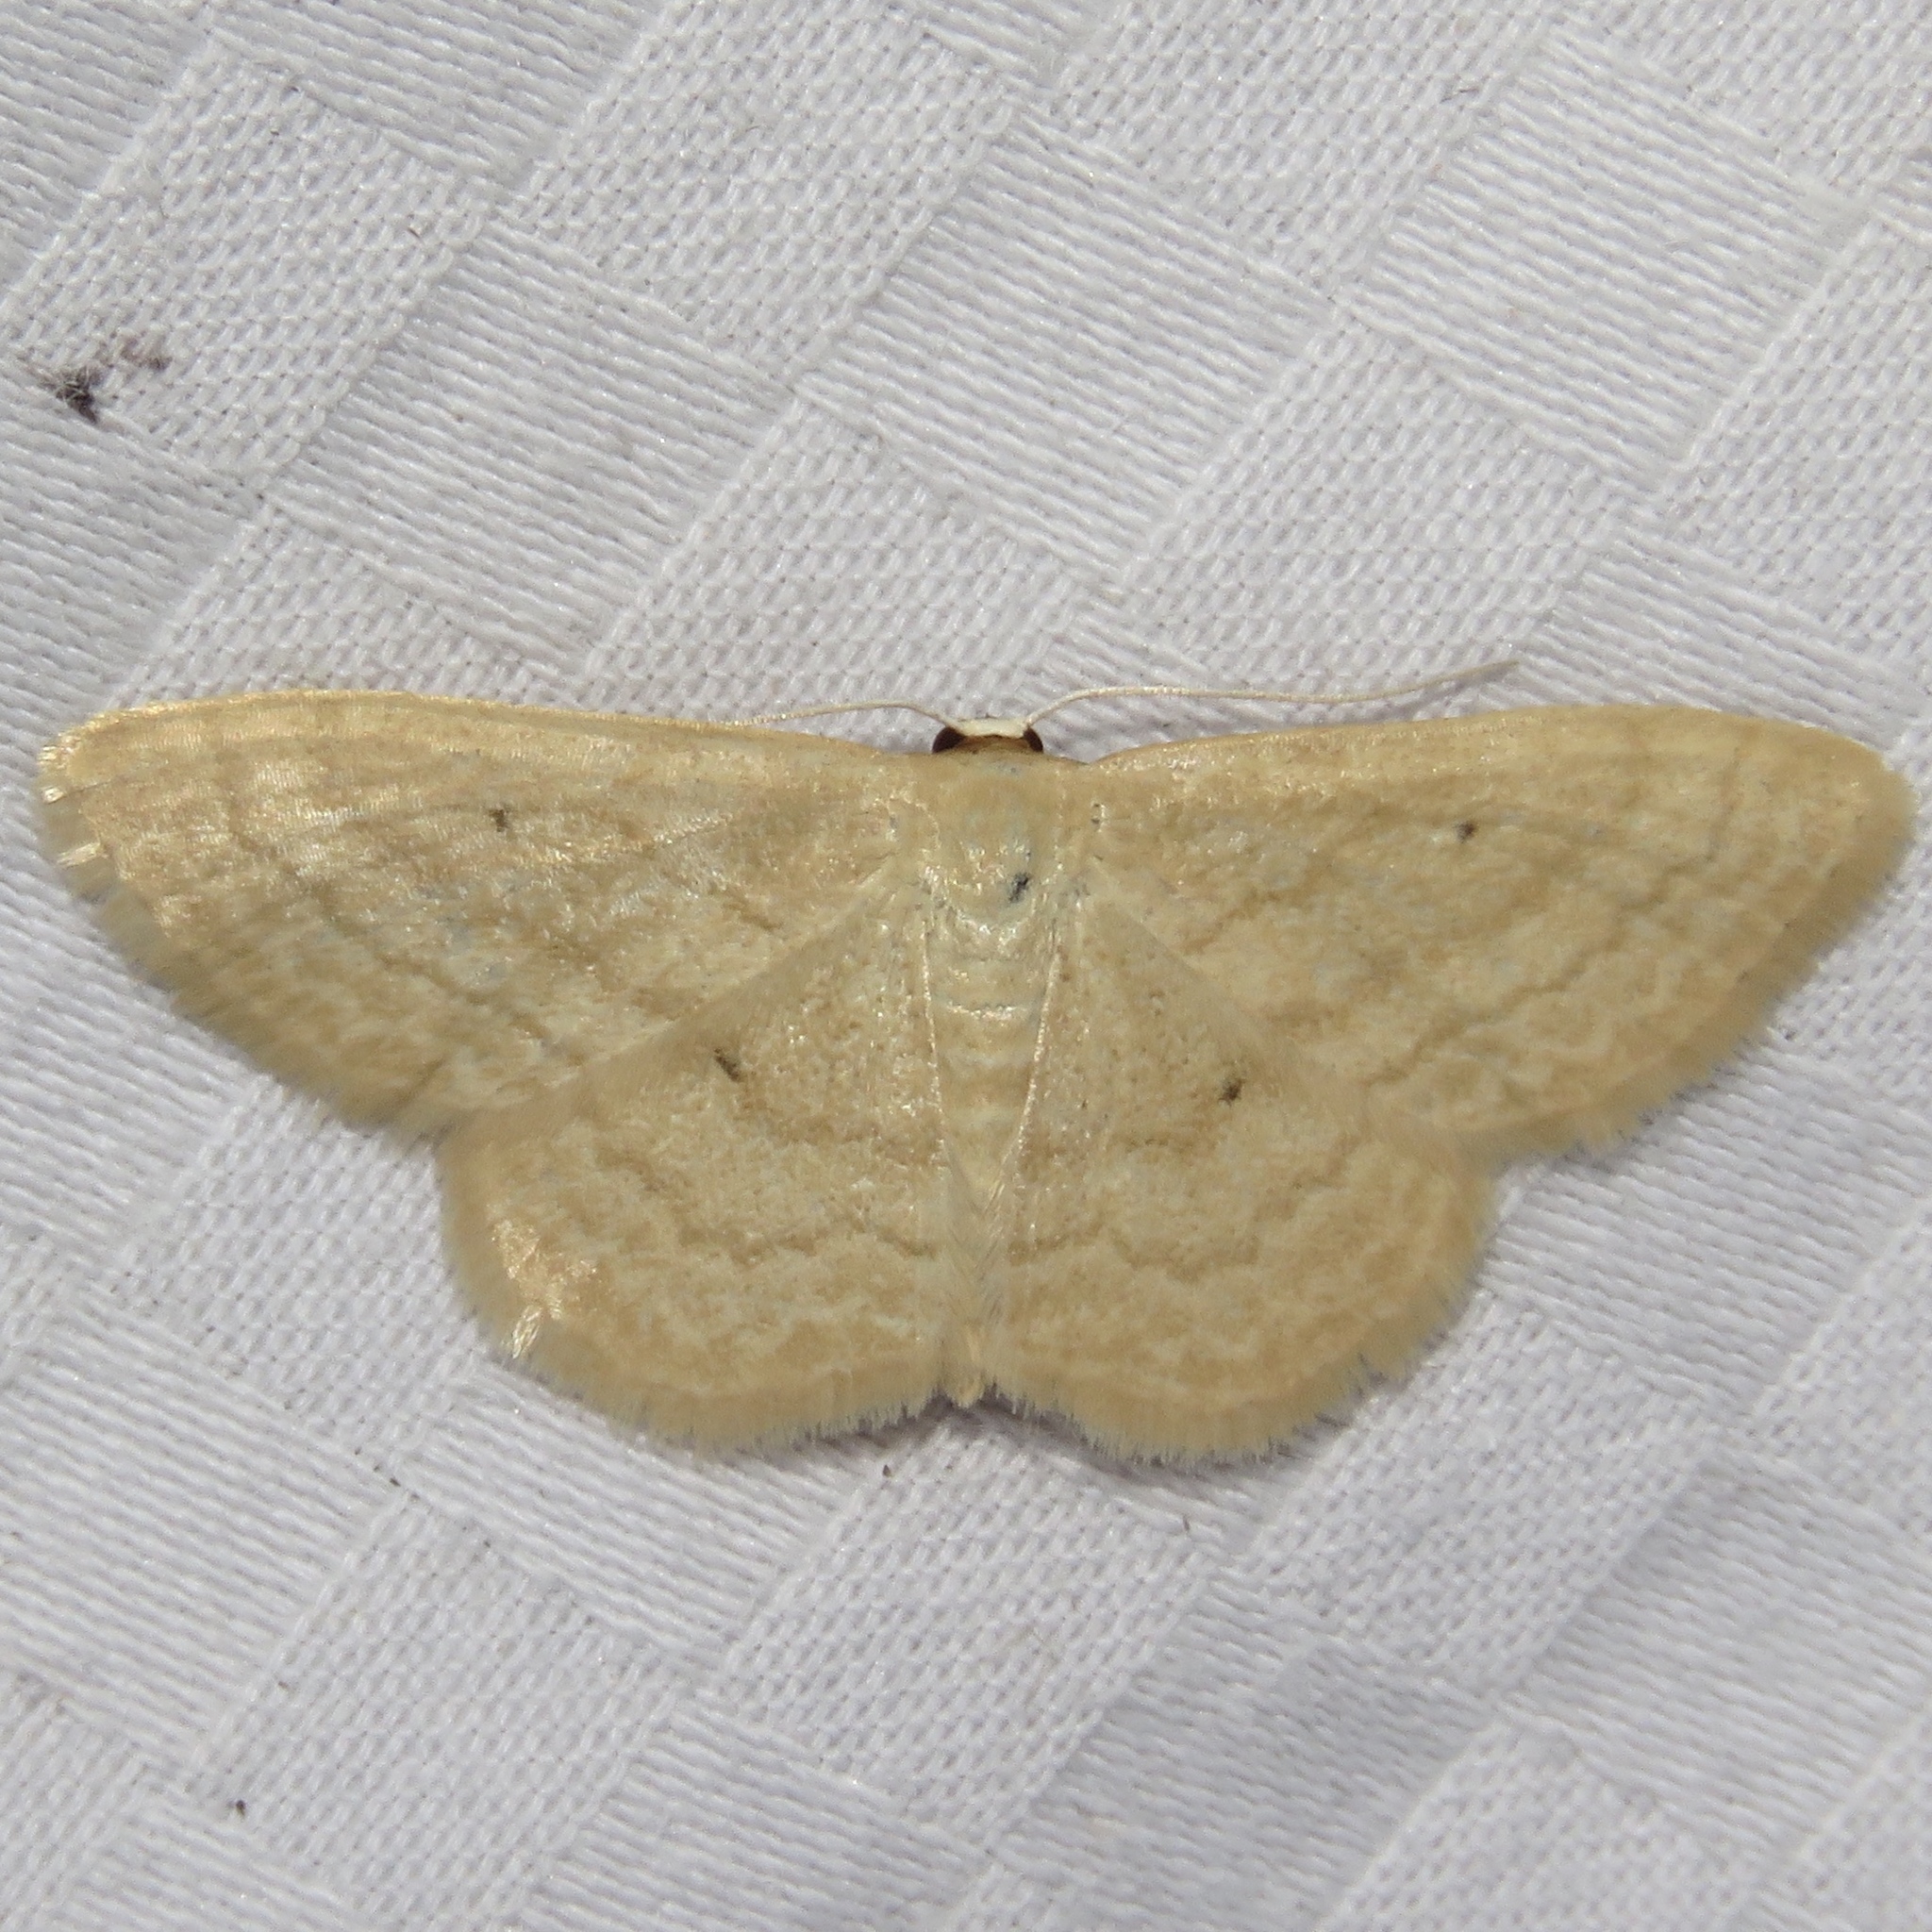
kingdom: Animalia
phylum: Arthropoda
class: Insecta
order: Lepidoptera
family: Geometridae
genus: Scopula
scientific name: Scopula inductata
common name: Soft-lined wave
